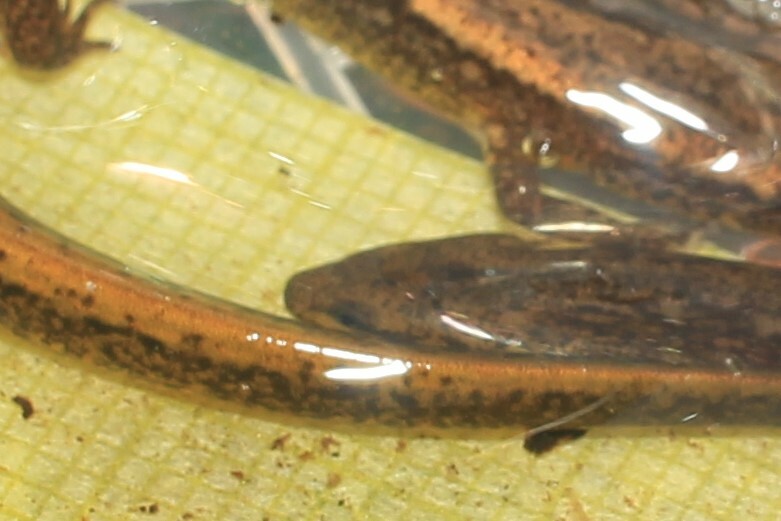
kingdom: Animalia
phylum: Chordata
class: Amphibia
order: Caudata
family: Plethodontidae
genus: Eurycea
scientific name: Eurycea bislineata
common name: Northern two-lined salamander
